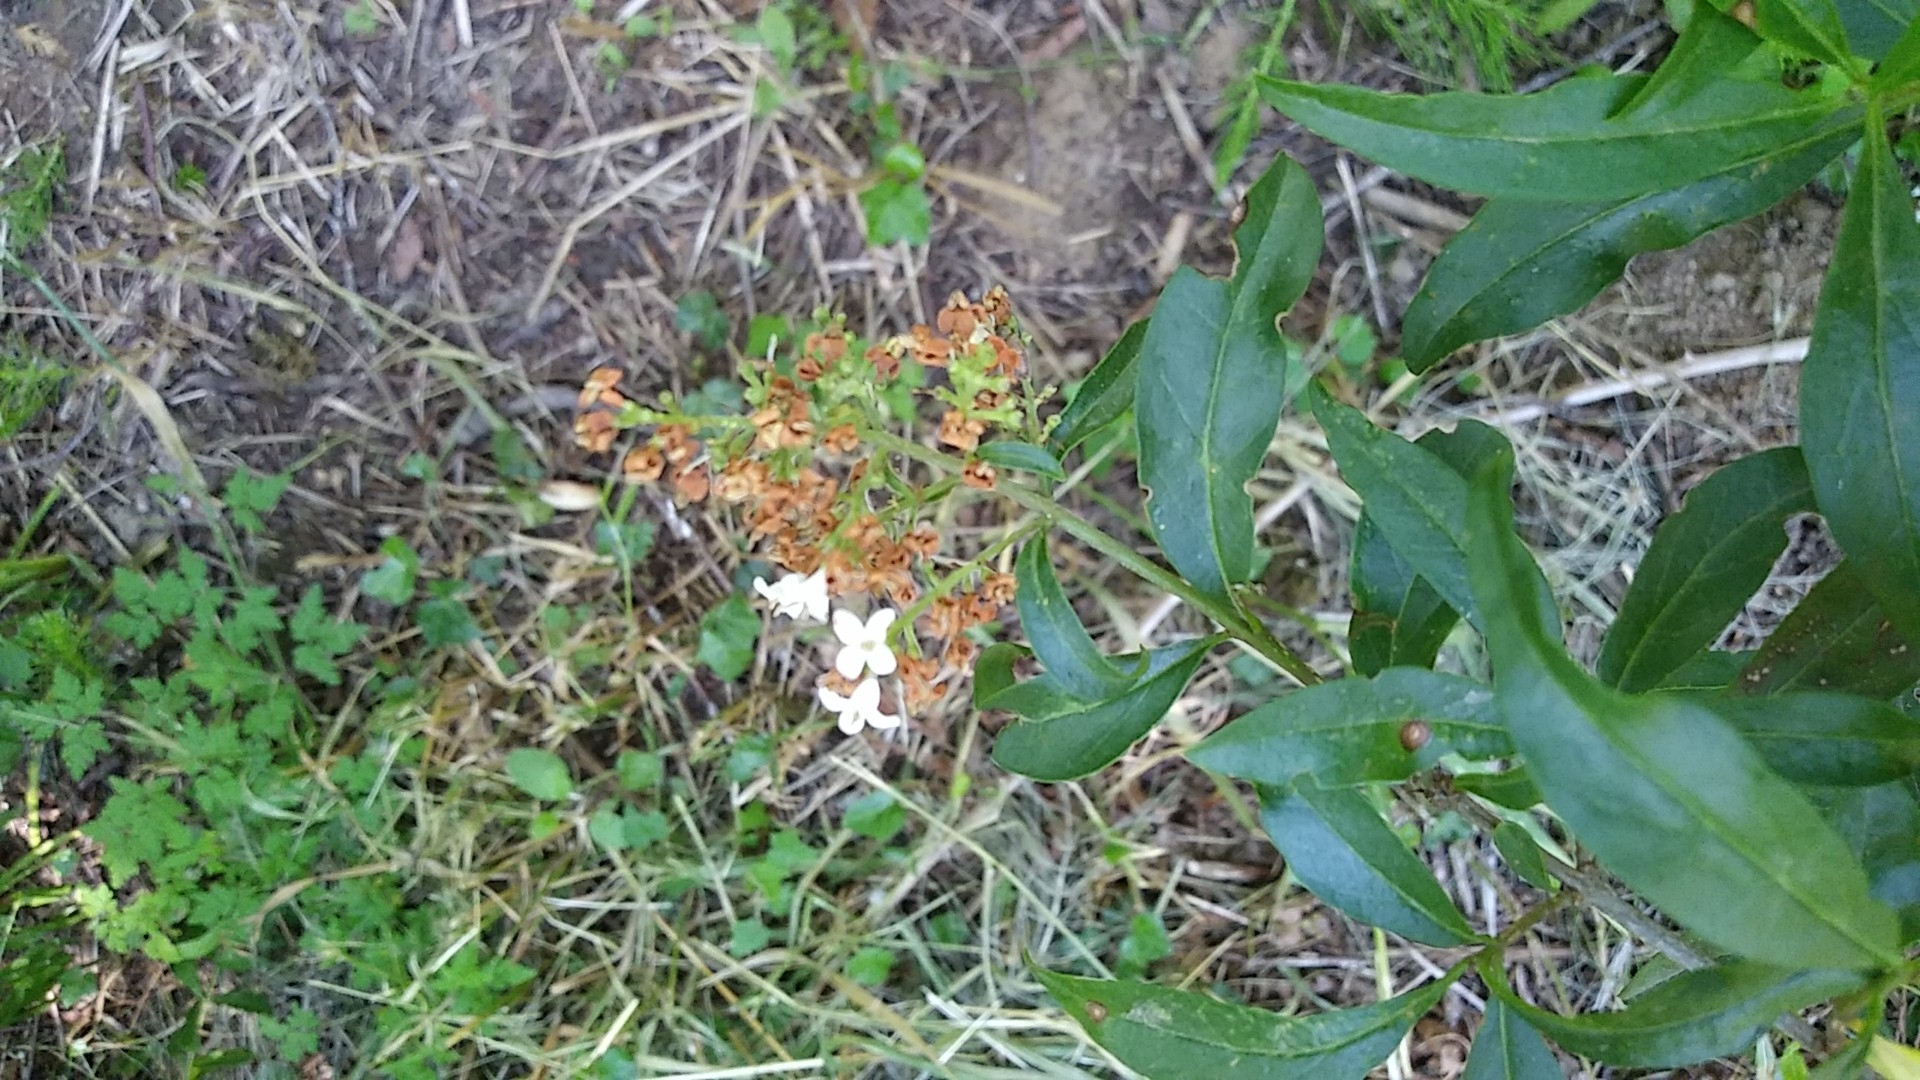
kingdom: Plantae
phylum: Tracheophyta
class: Magnoliopsida
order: Lamiales
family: Oleaceae
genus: Ligustrum
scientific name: Ligustrum vulgare
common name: Wild privet
